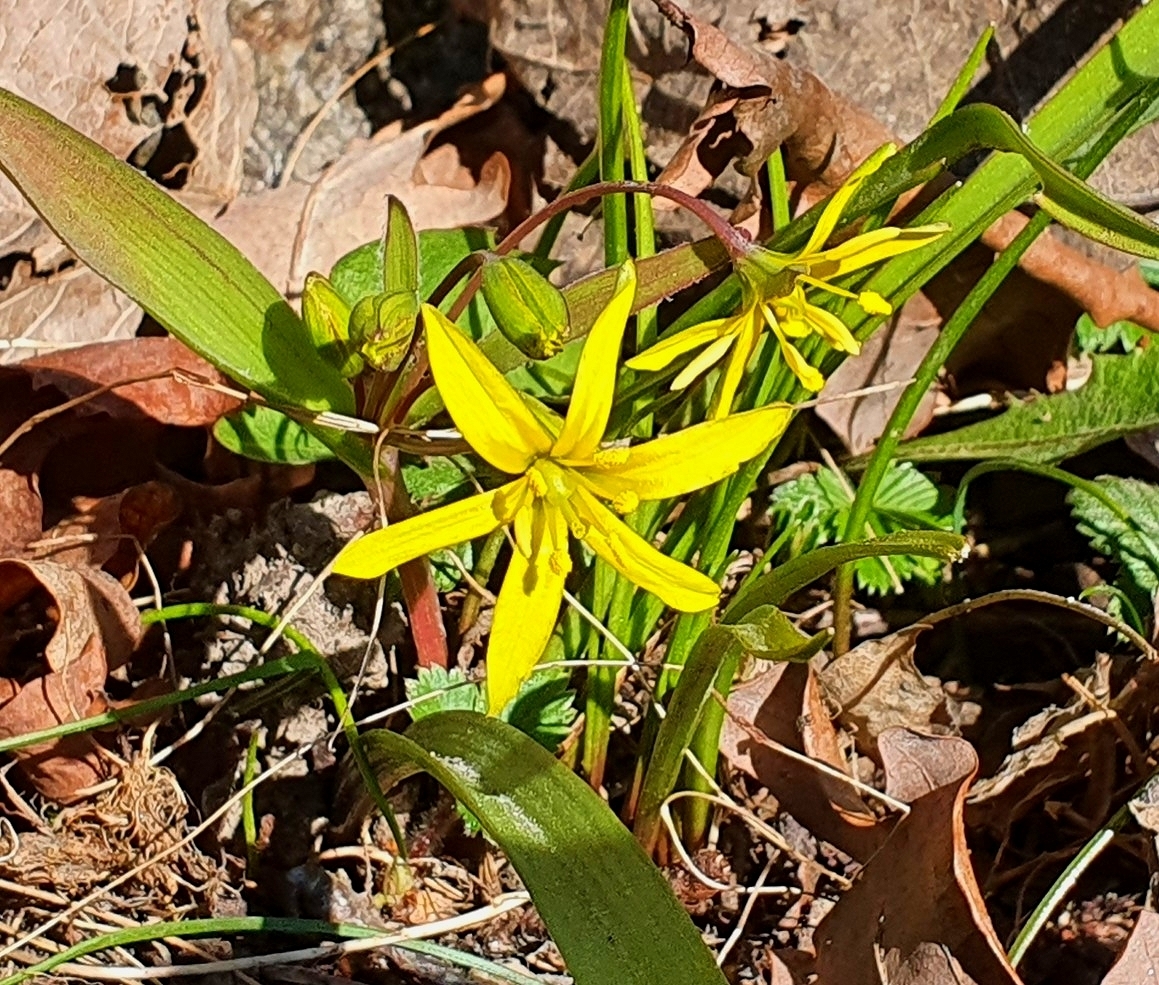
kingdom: Plantae
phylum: Tracheophyta
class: Liliopsida
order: Liliales
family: Liliaceae
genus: Gagea
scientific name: Gagea lutea
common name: Yellow star-of-bethlehem
